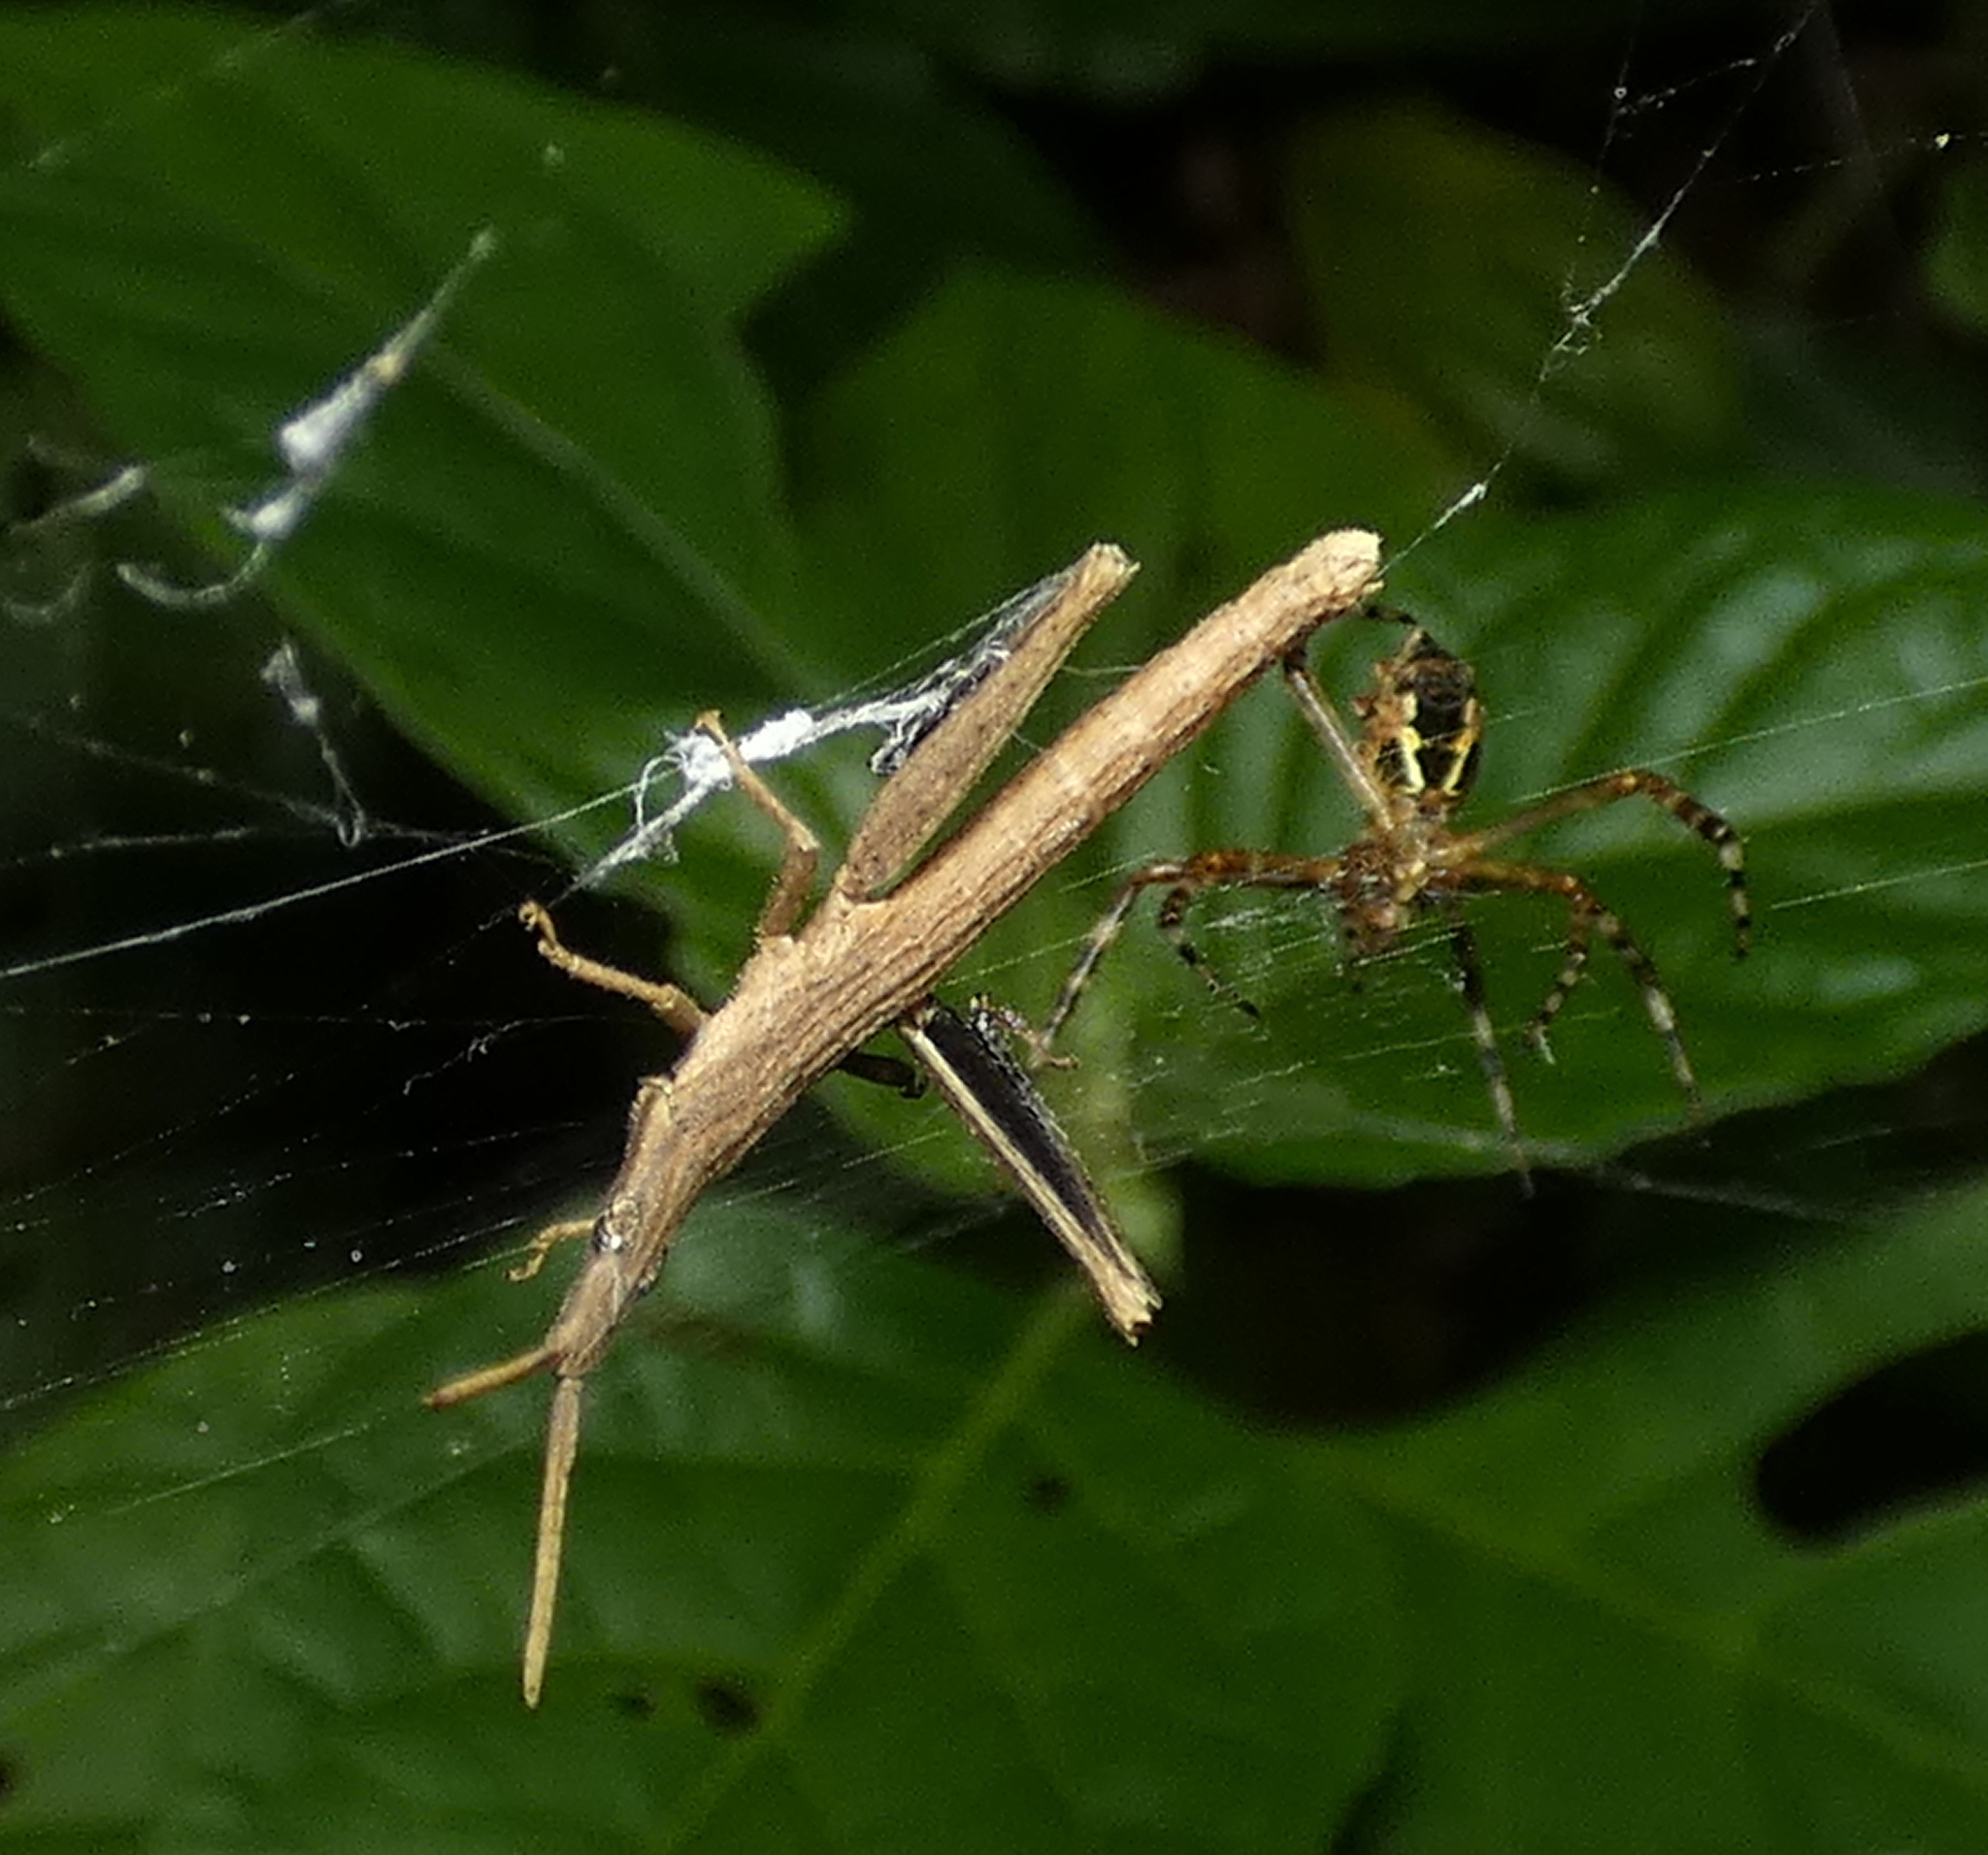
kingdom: Animalia
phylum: Arthropoda
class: Arachnida
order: Araneae
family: Araneidae
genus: Argiope
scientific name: Argiope argentata
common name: Orb weavers
